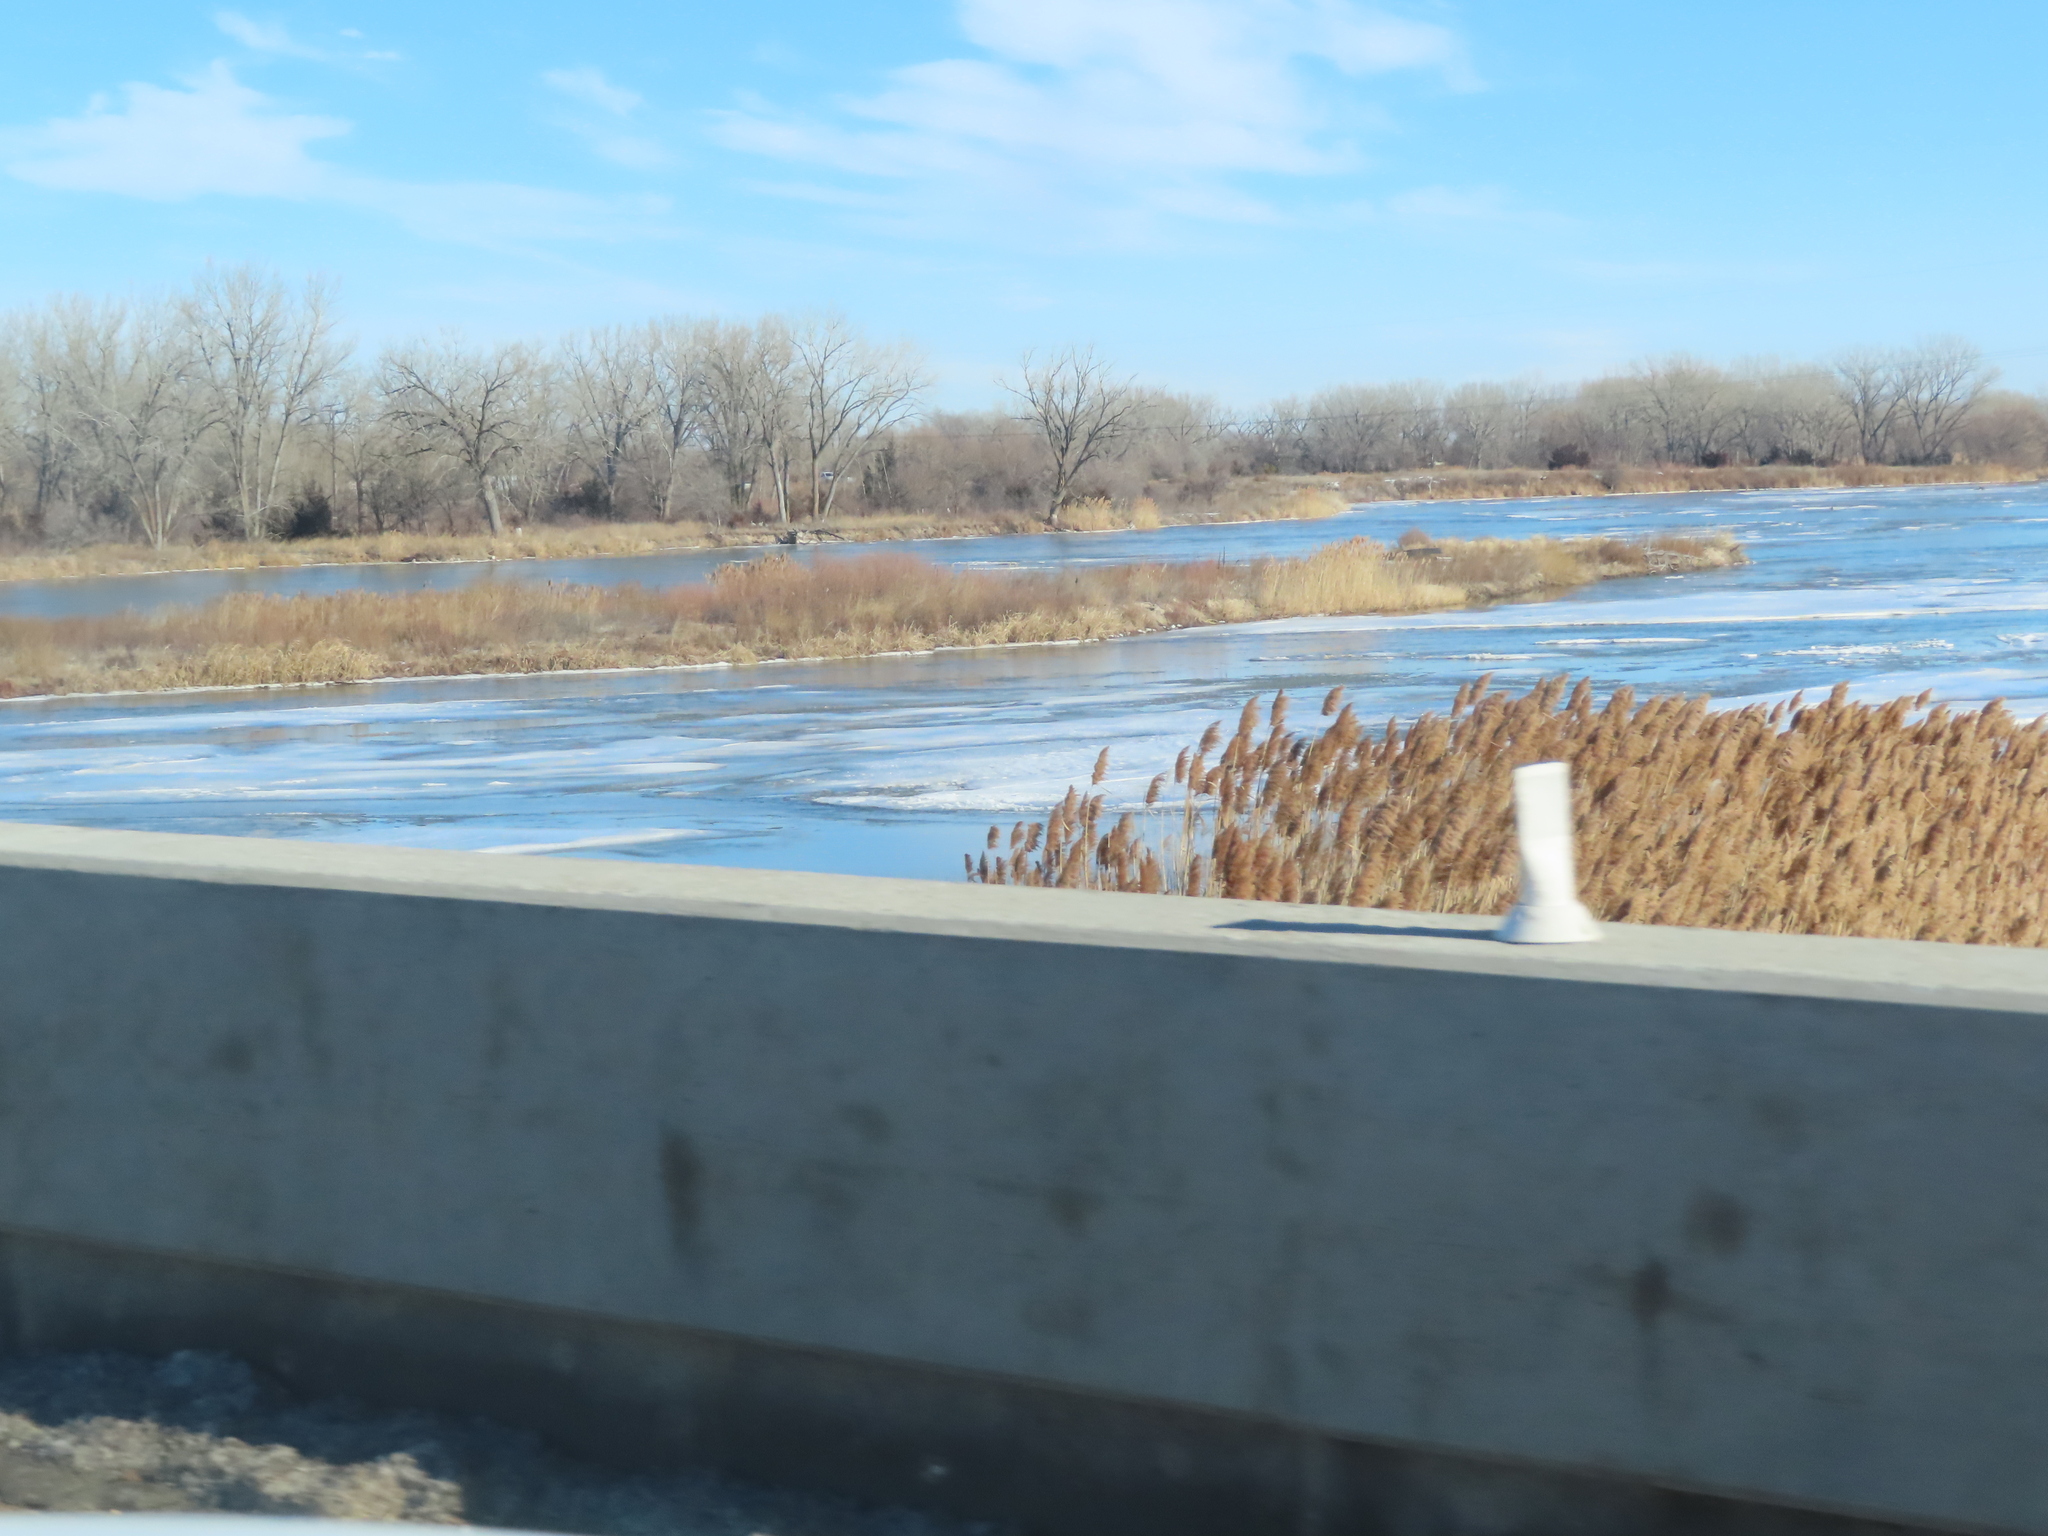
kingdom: Plantae
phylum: Tracheophyta
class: Liliopsida
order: Poales
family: Poaceae
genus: Phragmites
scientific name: Phragmites australis
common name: Common reed
